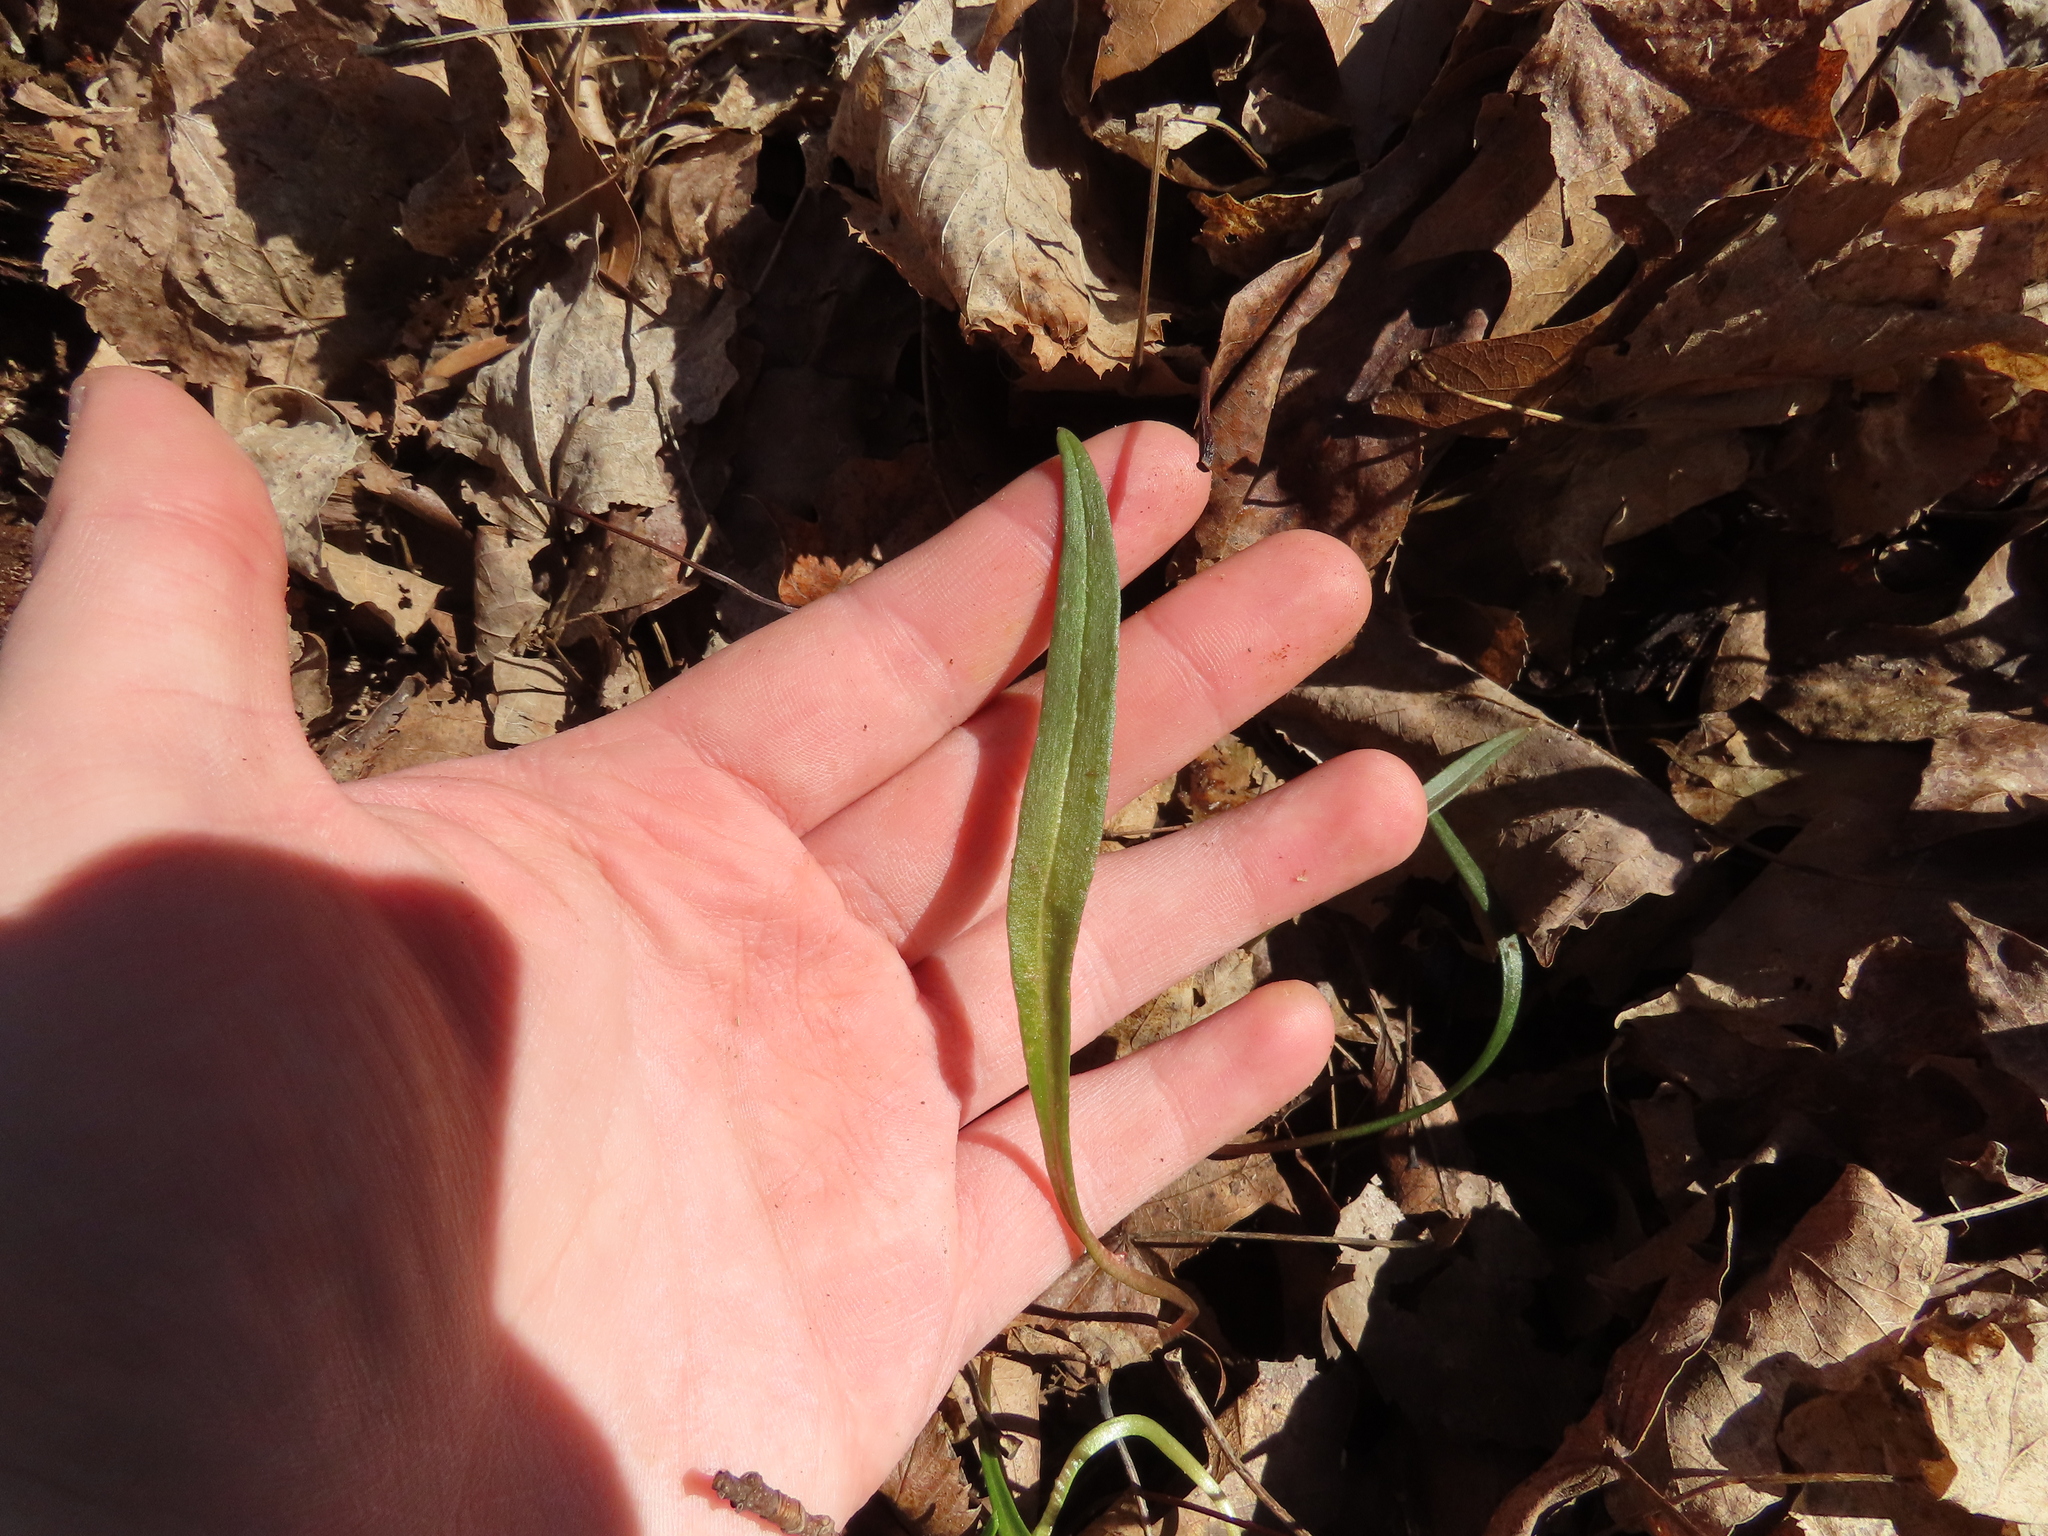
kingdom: Plantae
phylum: Tracheophyta
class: Magnoliopsida
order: Caryophyllales
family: Montiaceae
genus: Claytonia
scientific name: Claytonia virginica
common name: Virginia springbeauty
